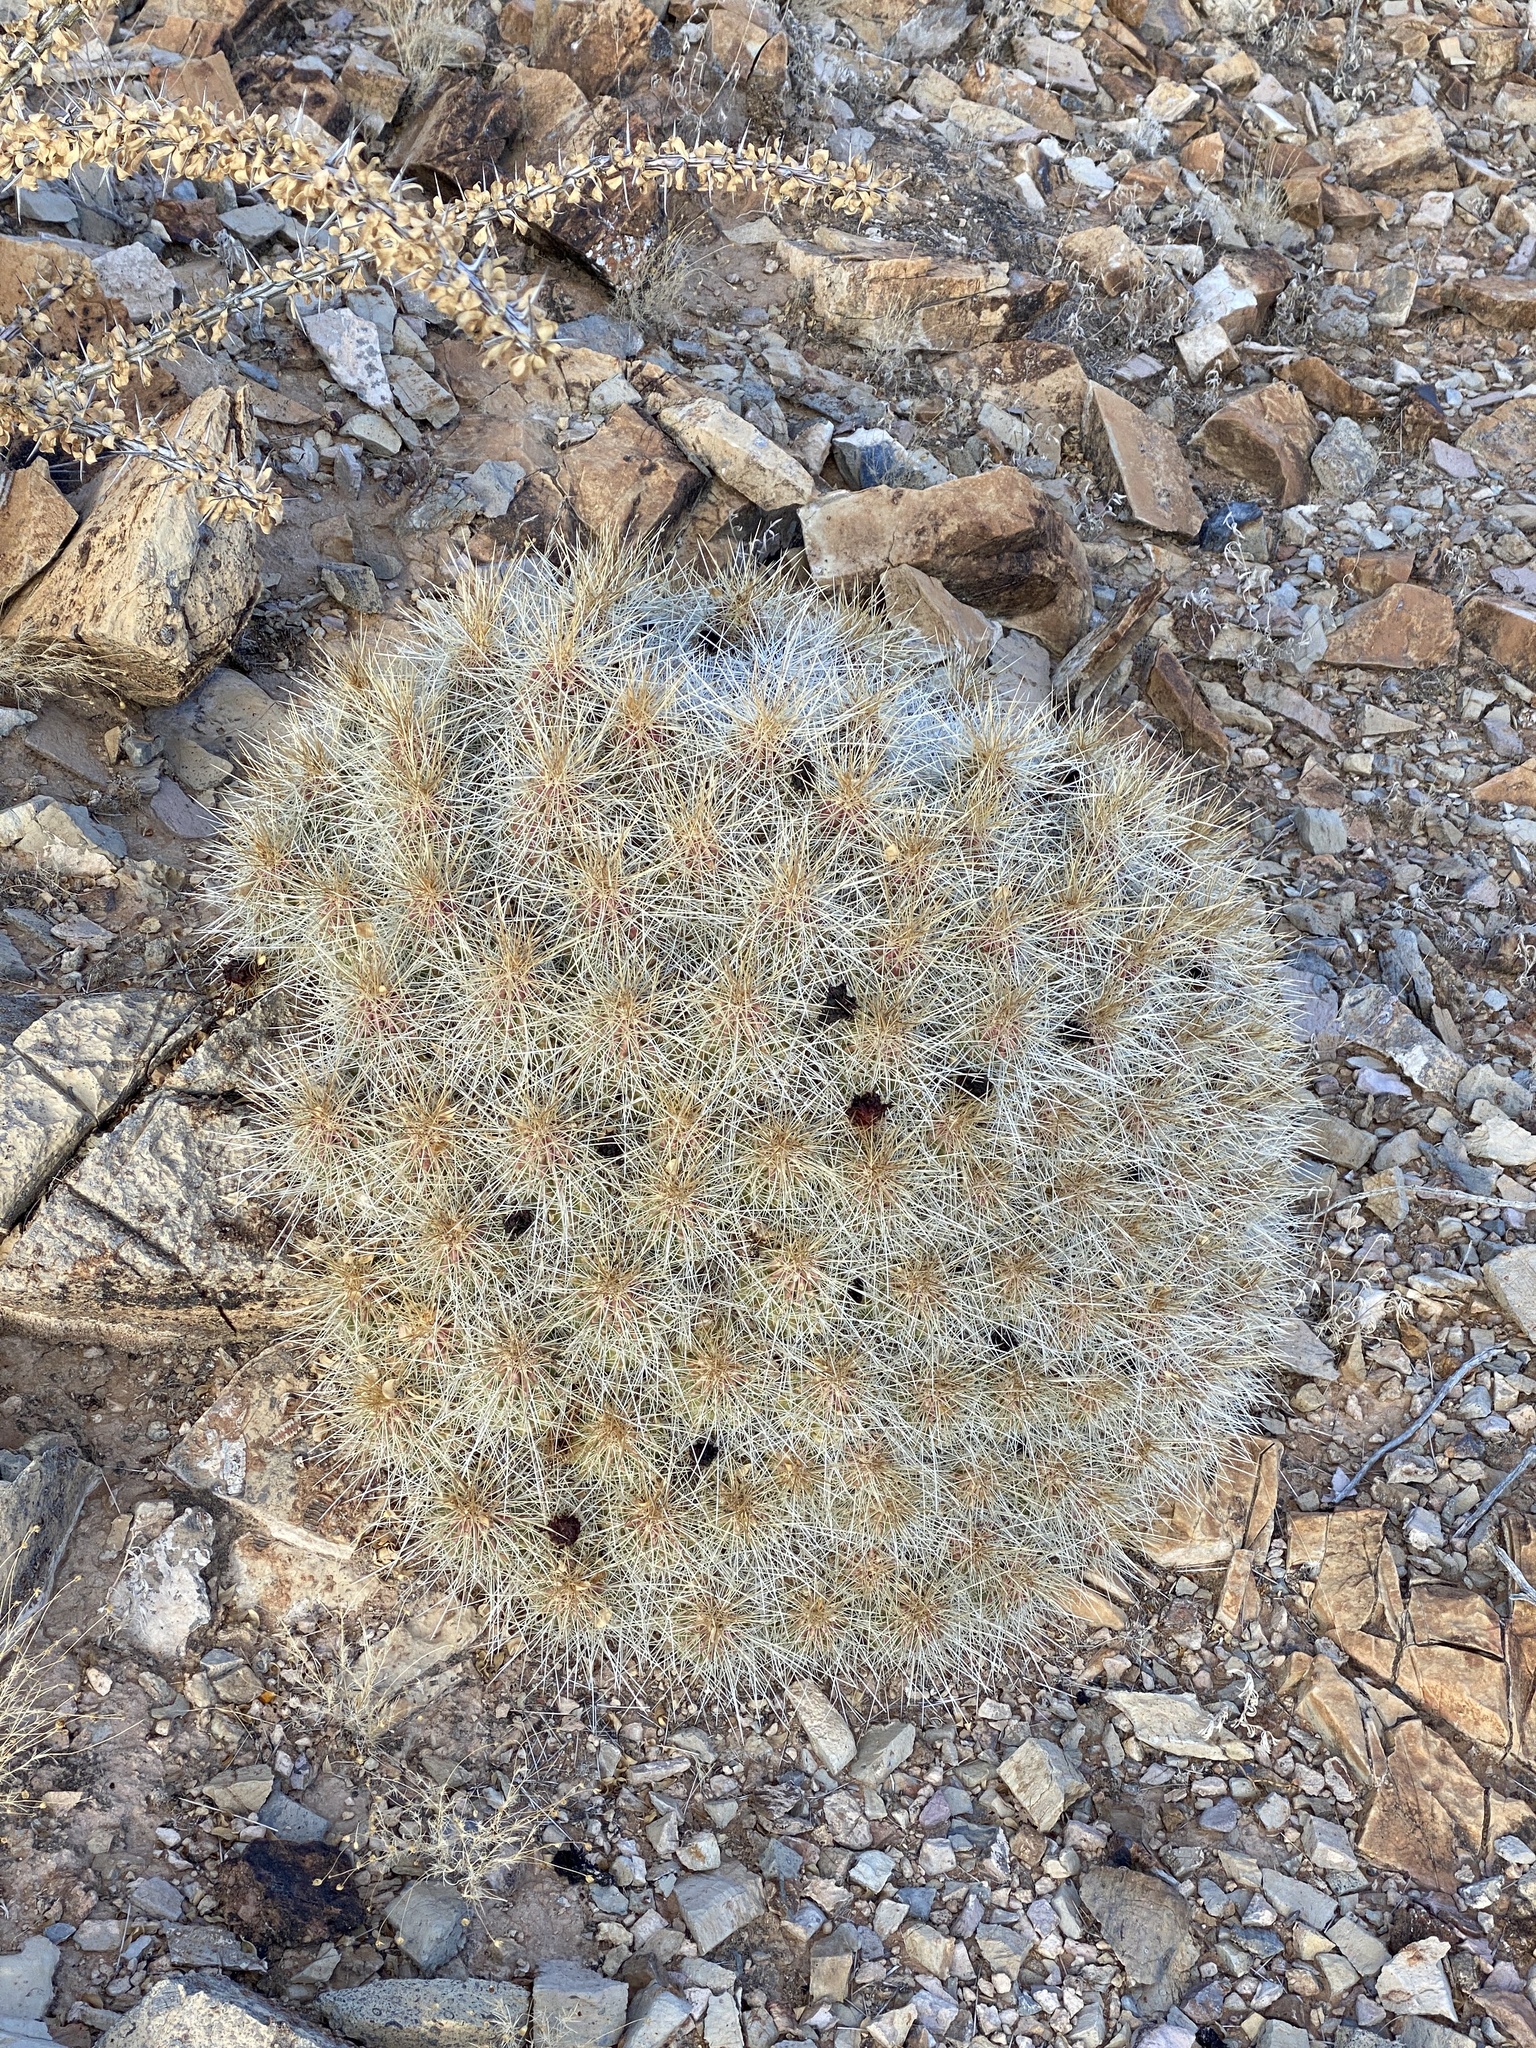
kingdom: Plantae
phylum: Tracheophyta
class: Magnoliopsida
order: Caryophyllales
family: Cactaceae
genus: Echinocereus
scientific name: Echinocereus stramineus
